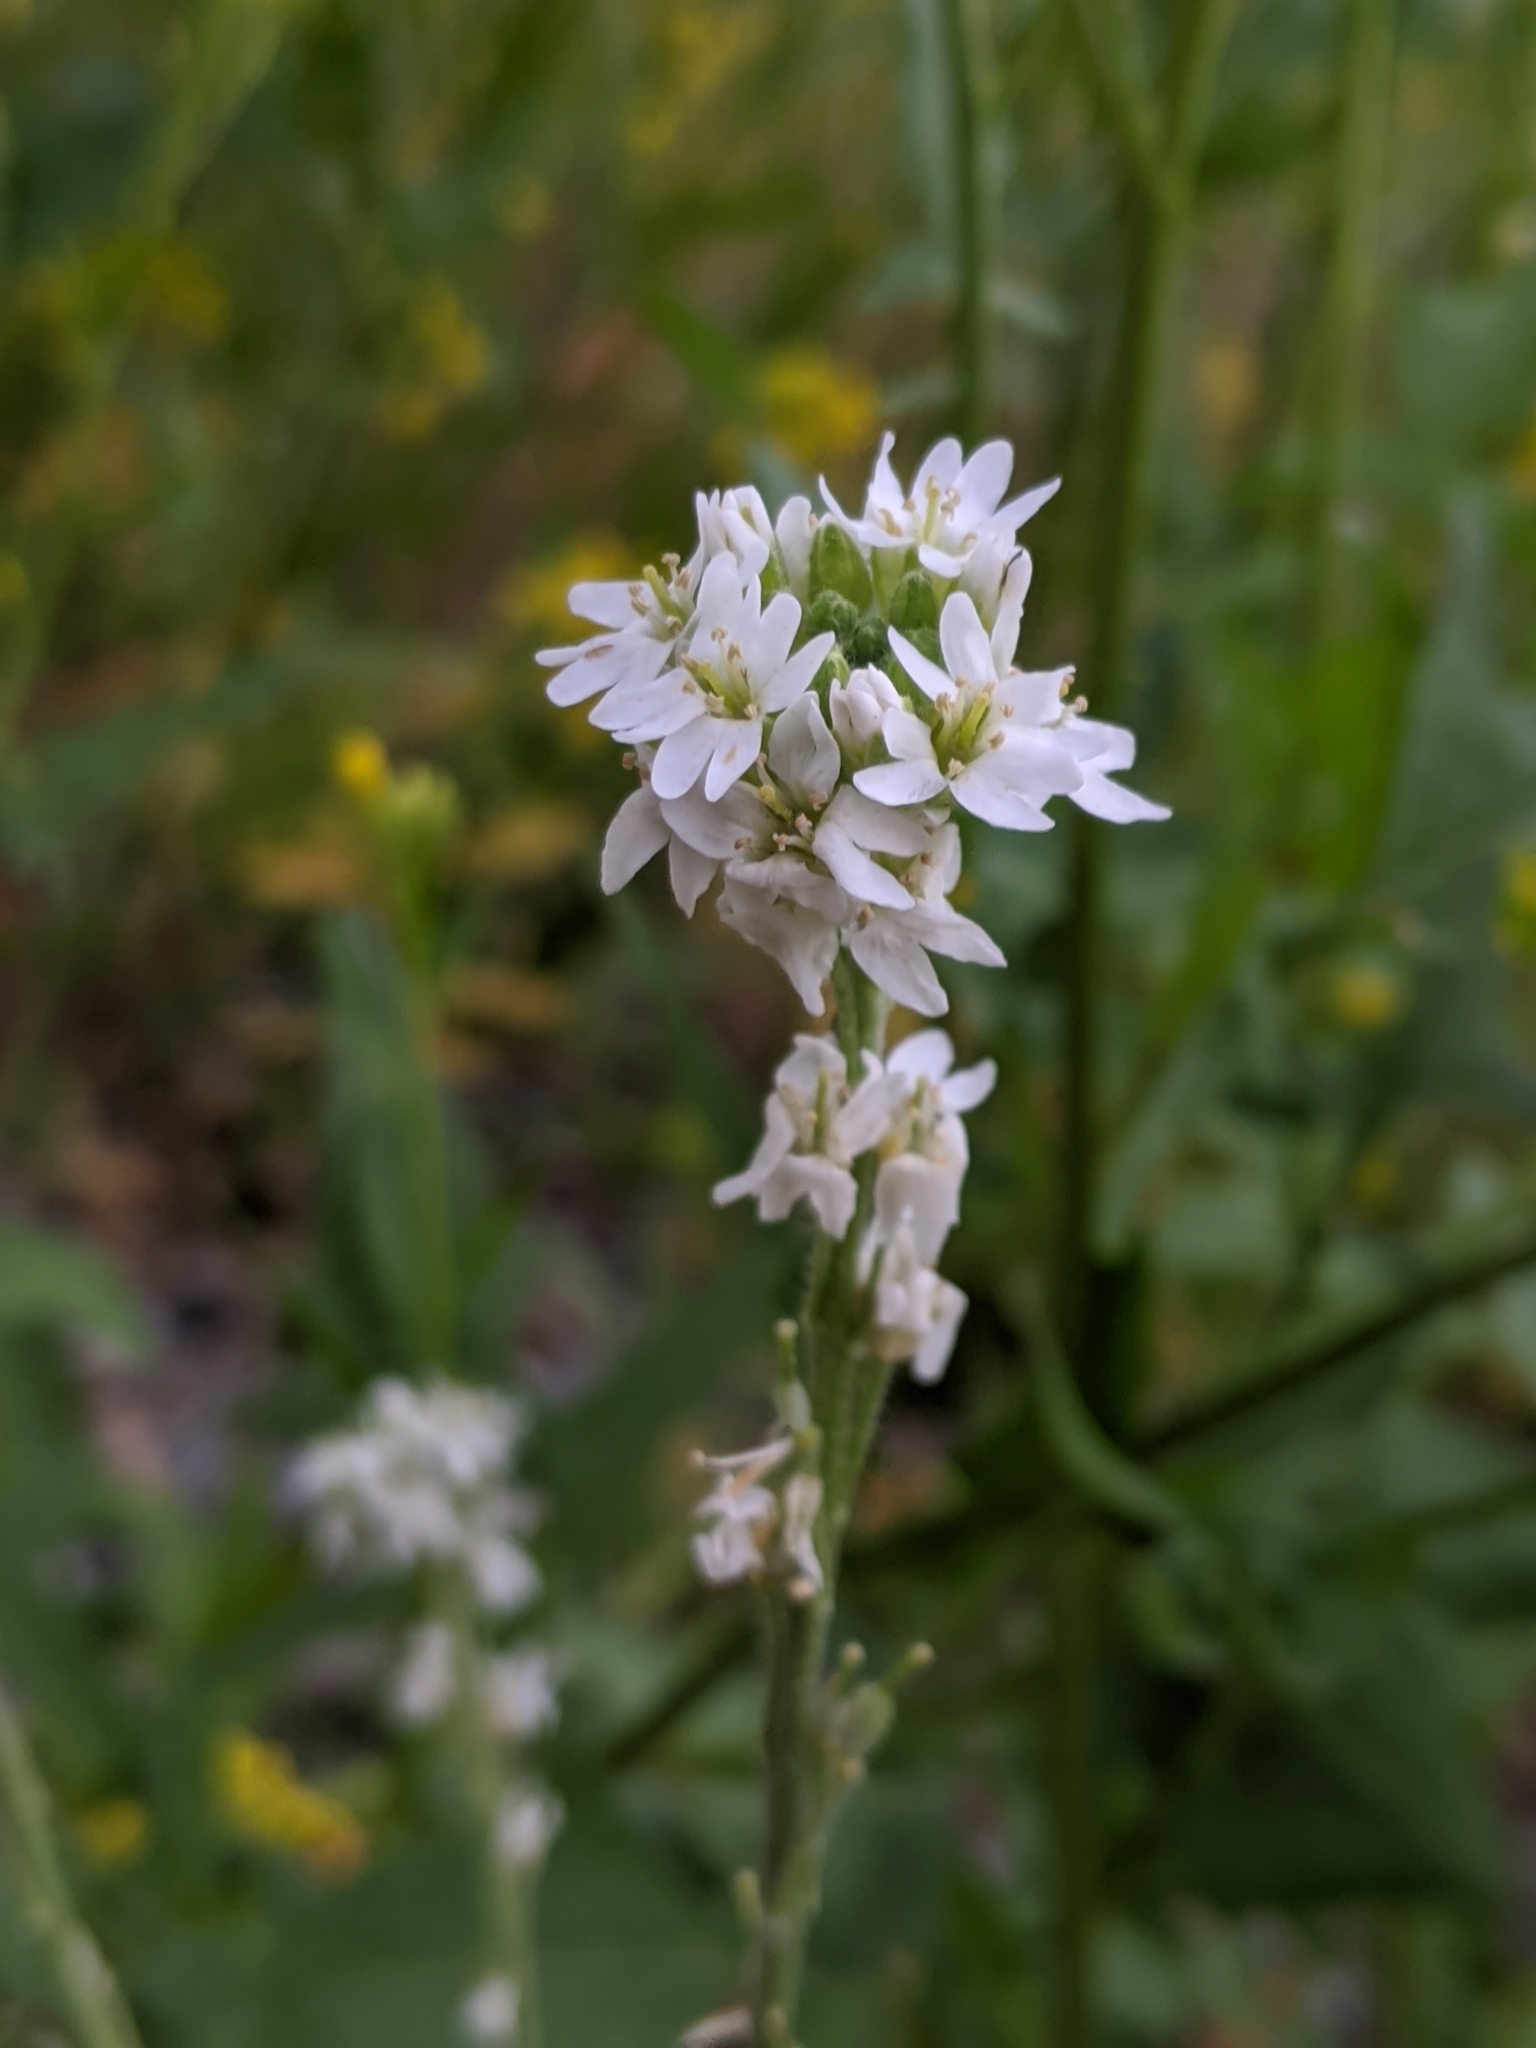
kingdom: Plantae
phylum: Tracheophyta
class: Magnoliopsida
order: Brassicales
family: Brassicaceae
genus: Berteroa
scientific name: Berteroa incana
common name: Hoary alison
